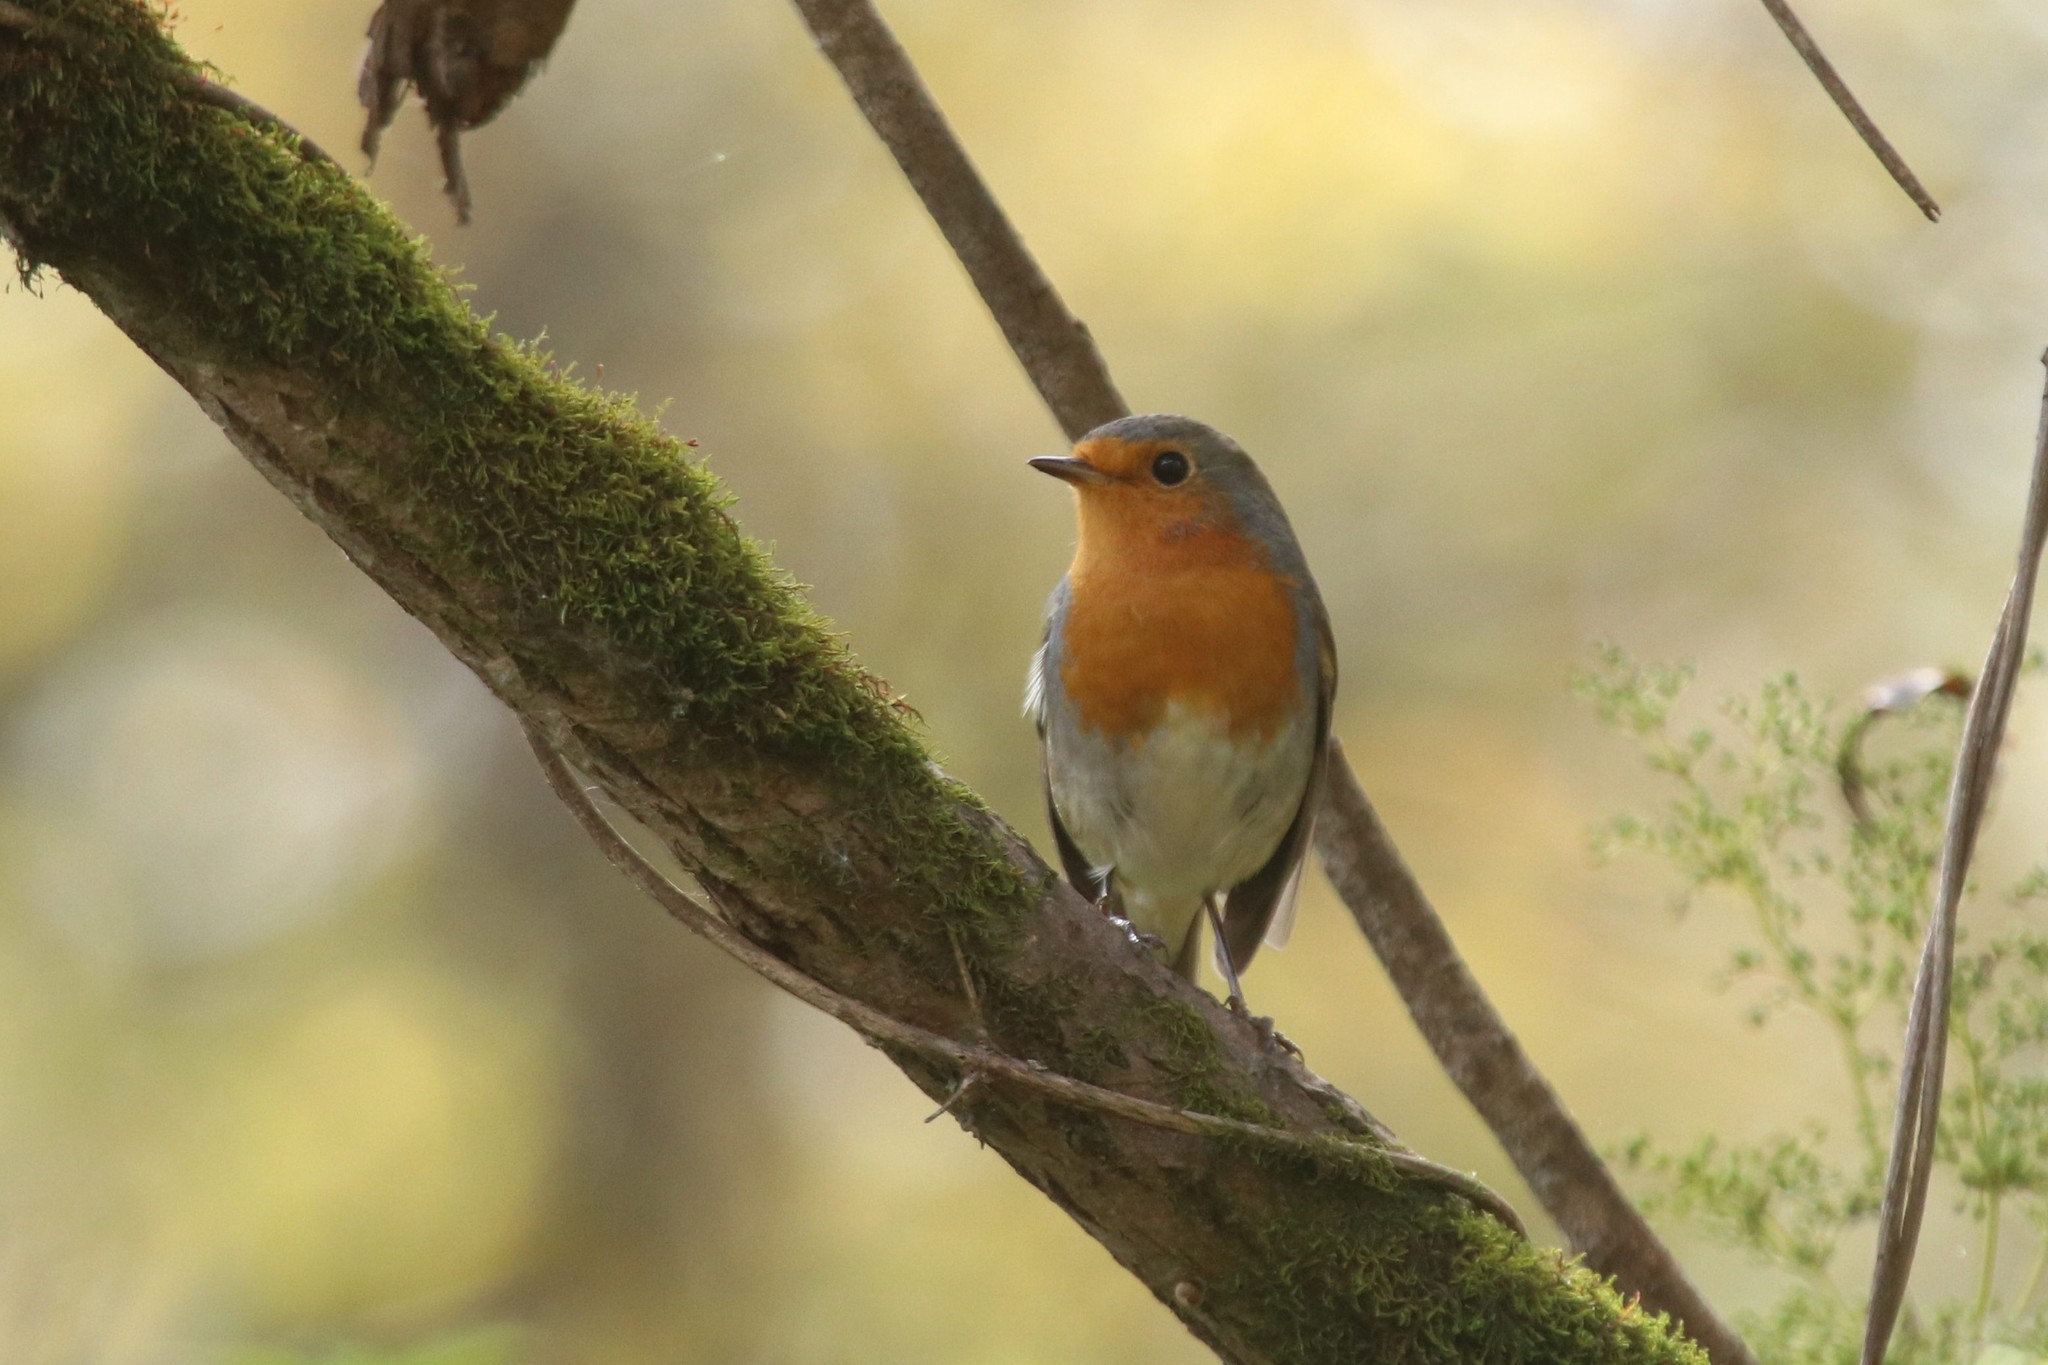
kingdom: Animalia
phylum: Chordata
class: Aves
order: Passeriformes
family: Muscicapidae
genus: Erithacus
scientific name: Erithacus rubecula
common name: European robin
